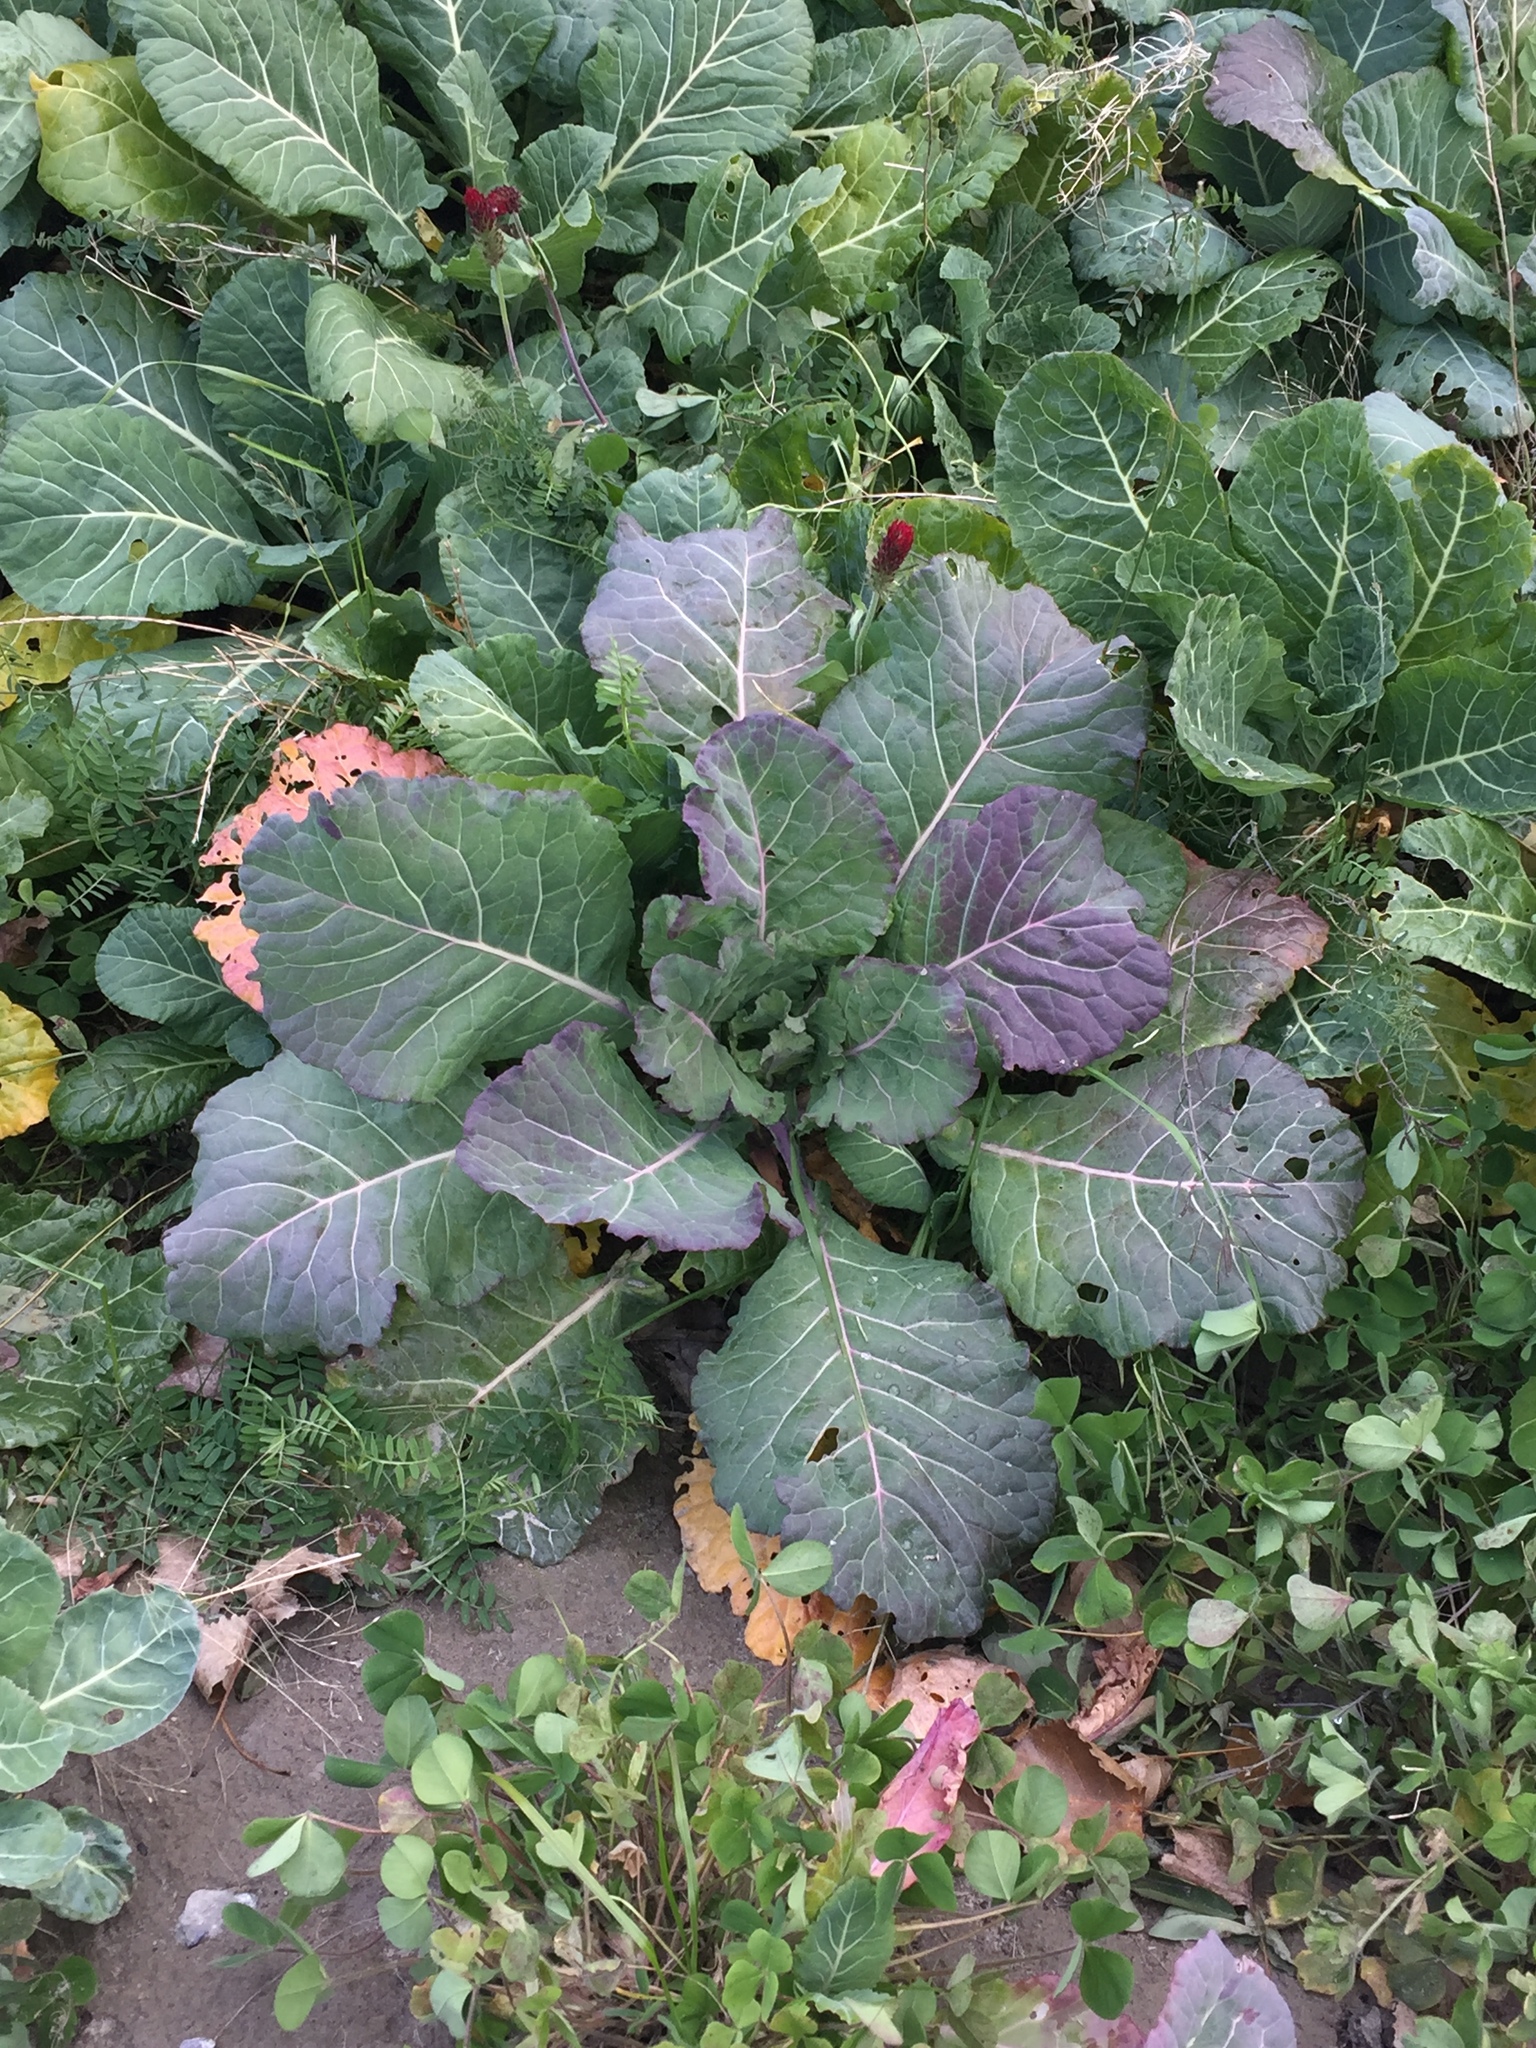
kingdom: Plantae
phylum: Tracheophyta
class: Magnoliopsida
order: Brassicales
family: Brassicaceae
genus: Brassica
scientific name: Brassica oleracea
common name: Cabbage
